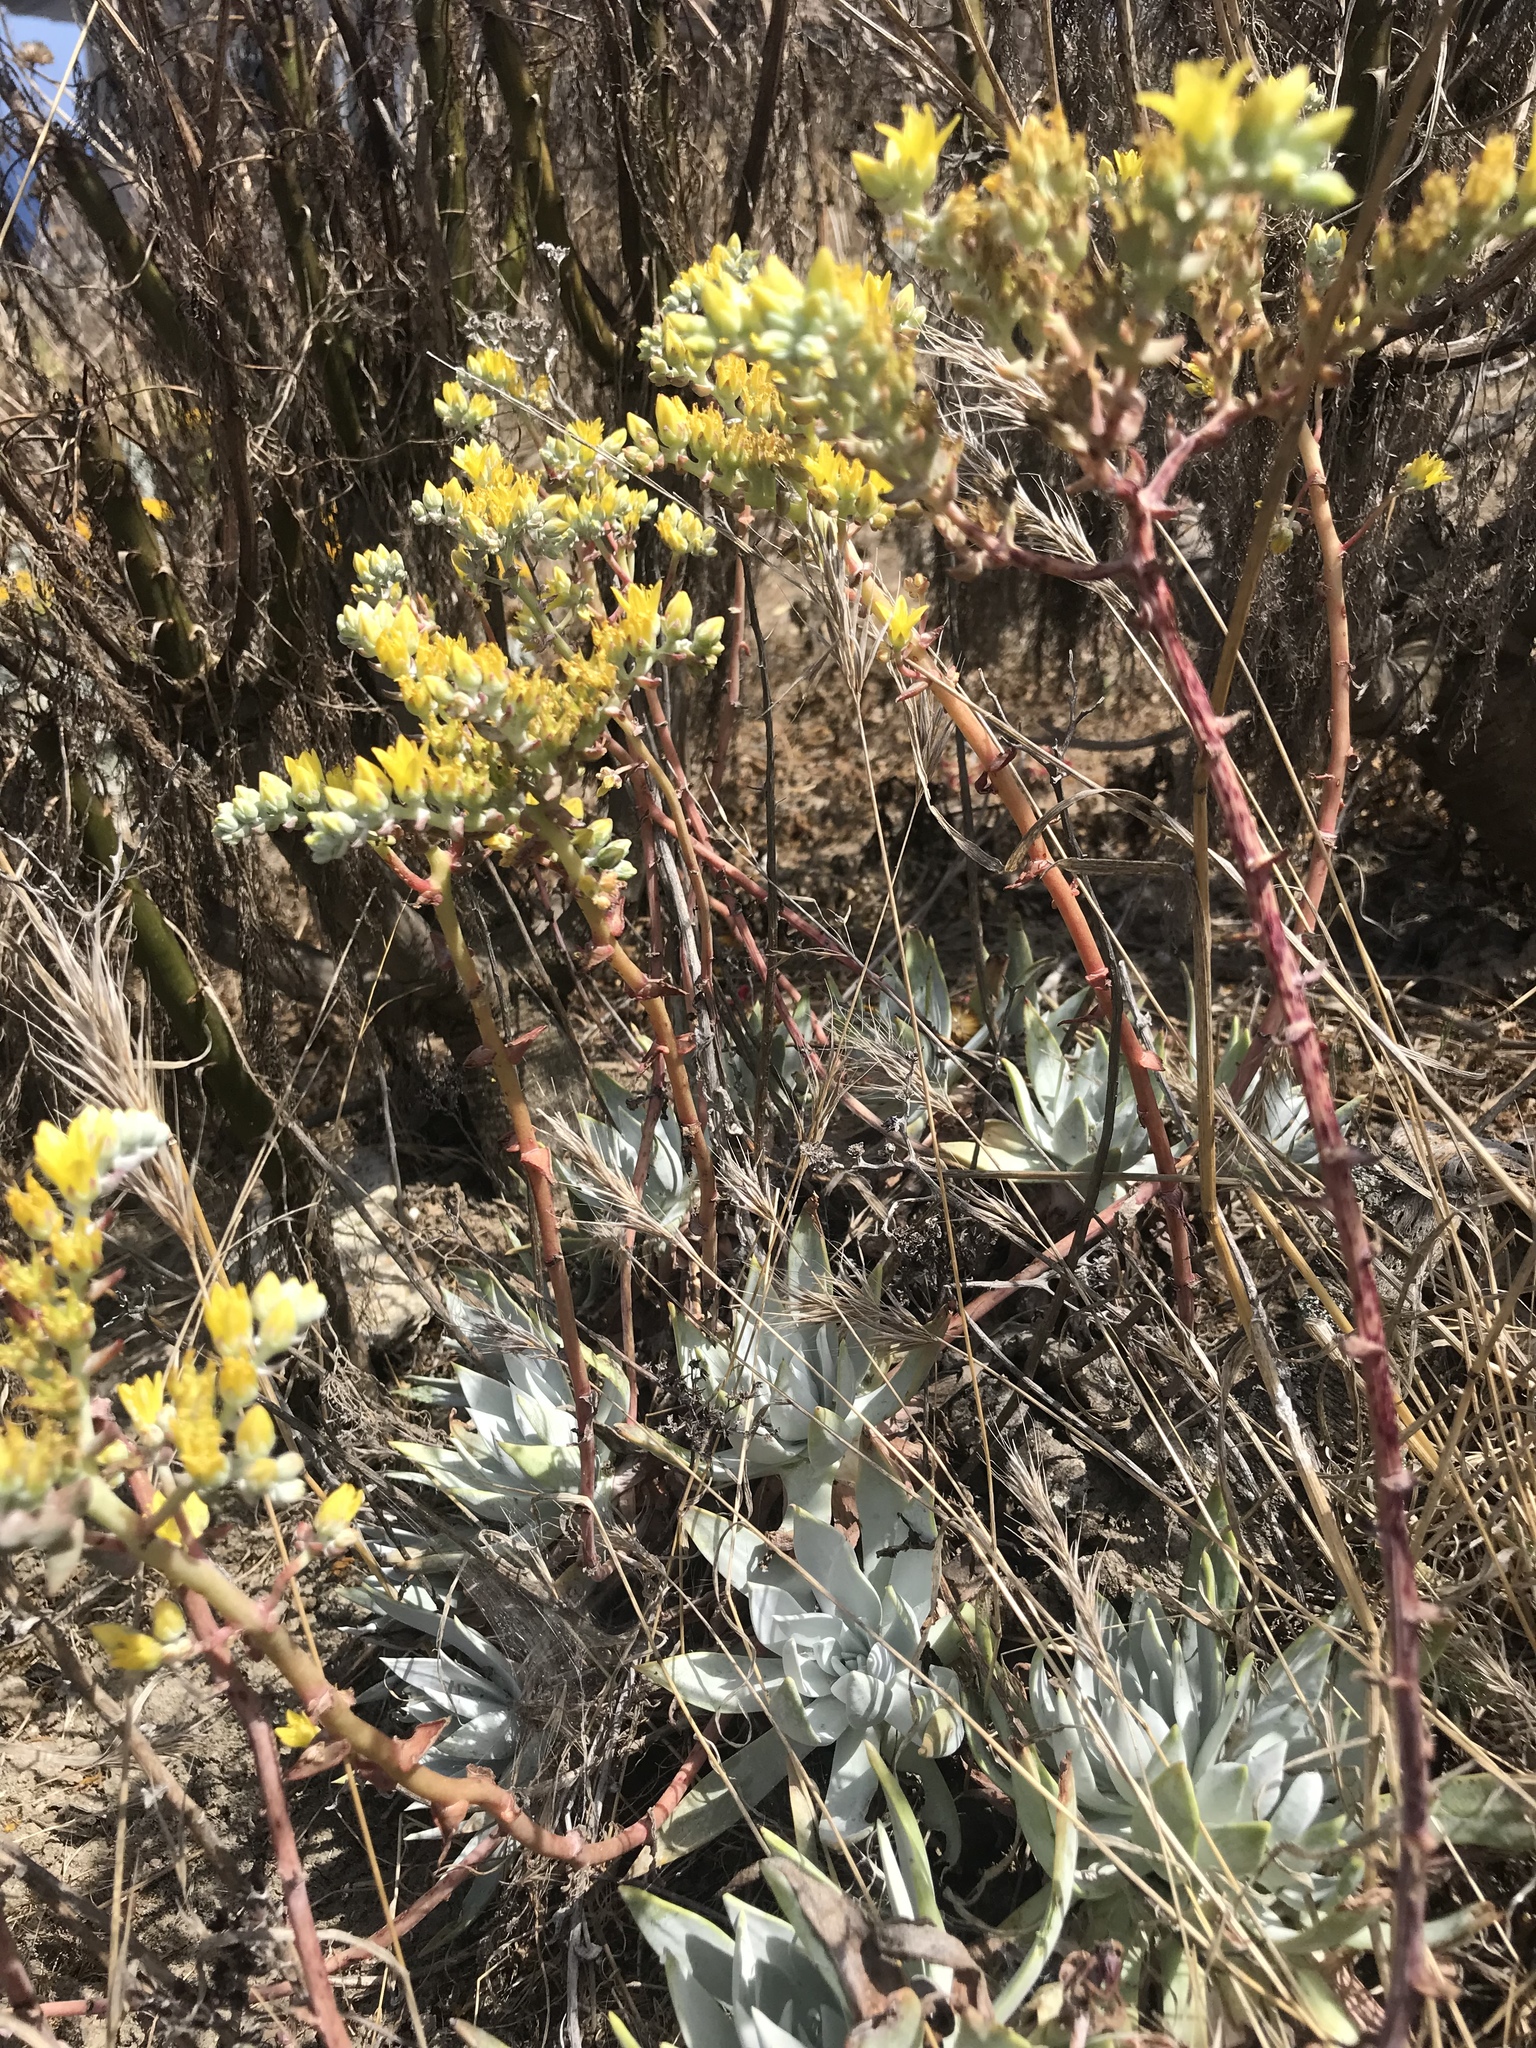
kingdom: Plantae
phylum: Tracheophyta
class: Magnoliopsida
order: Saxifragales
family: Crassulaceae
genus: Dudleya
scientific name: Dudleya traskiae
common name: Santa barbara island dudleya
